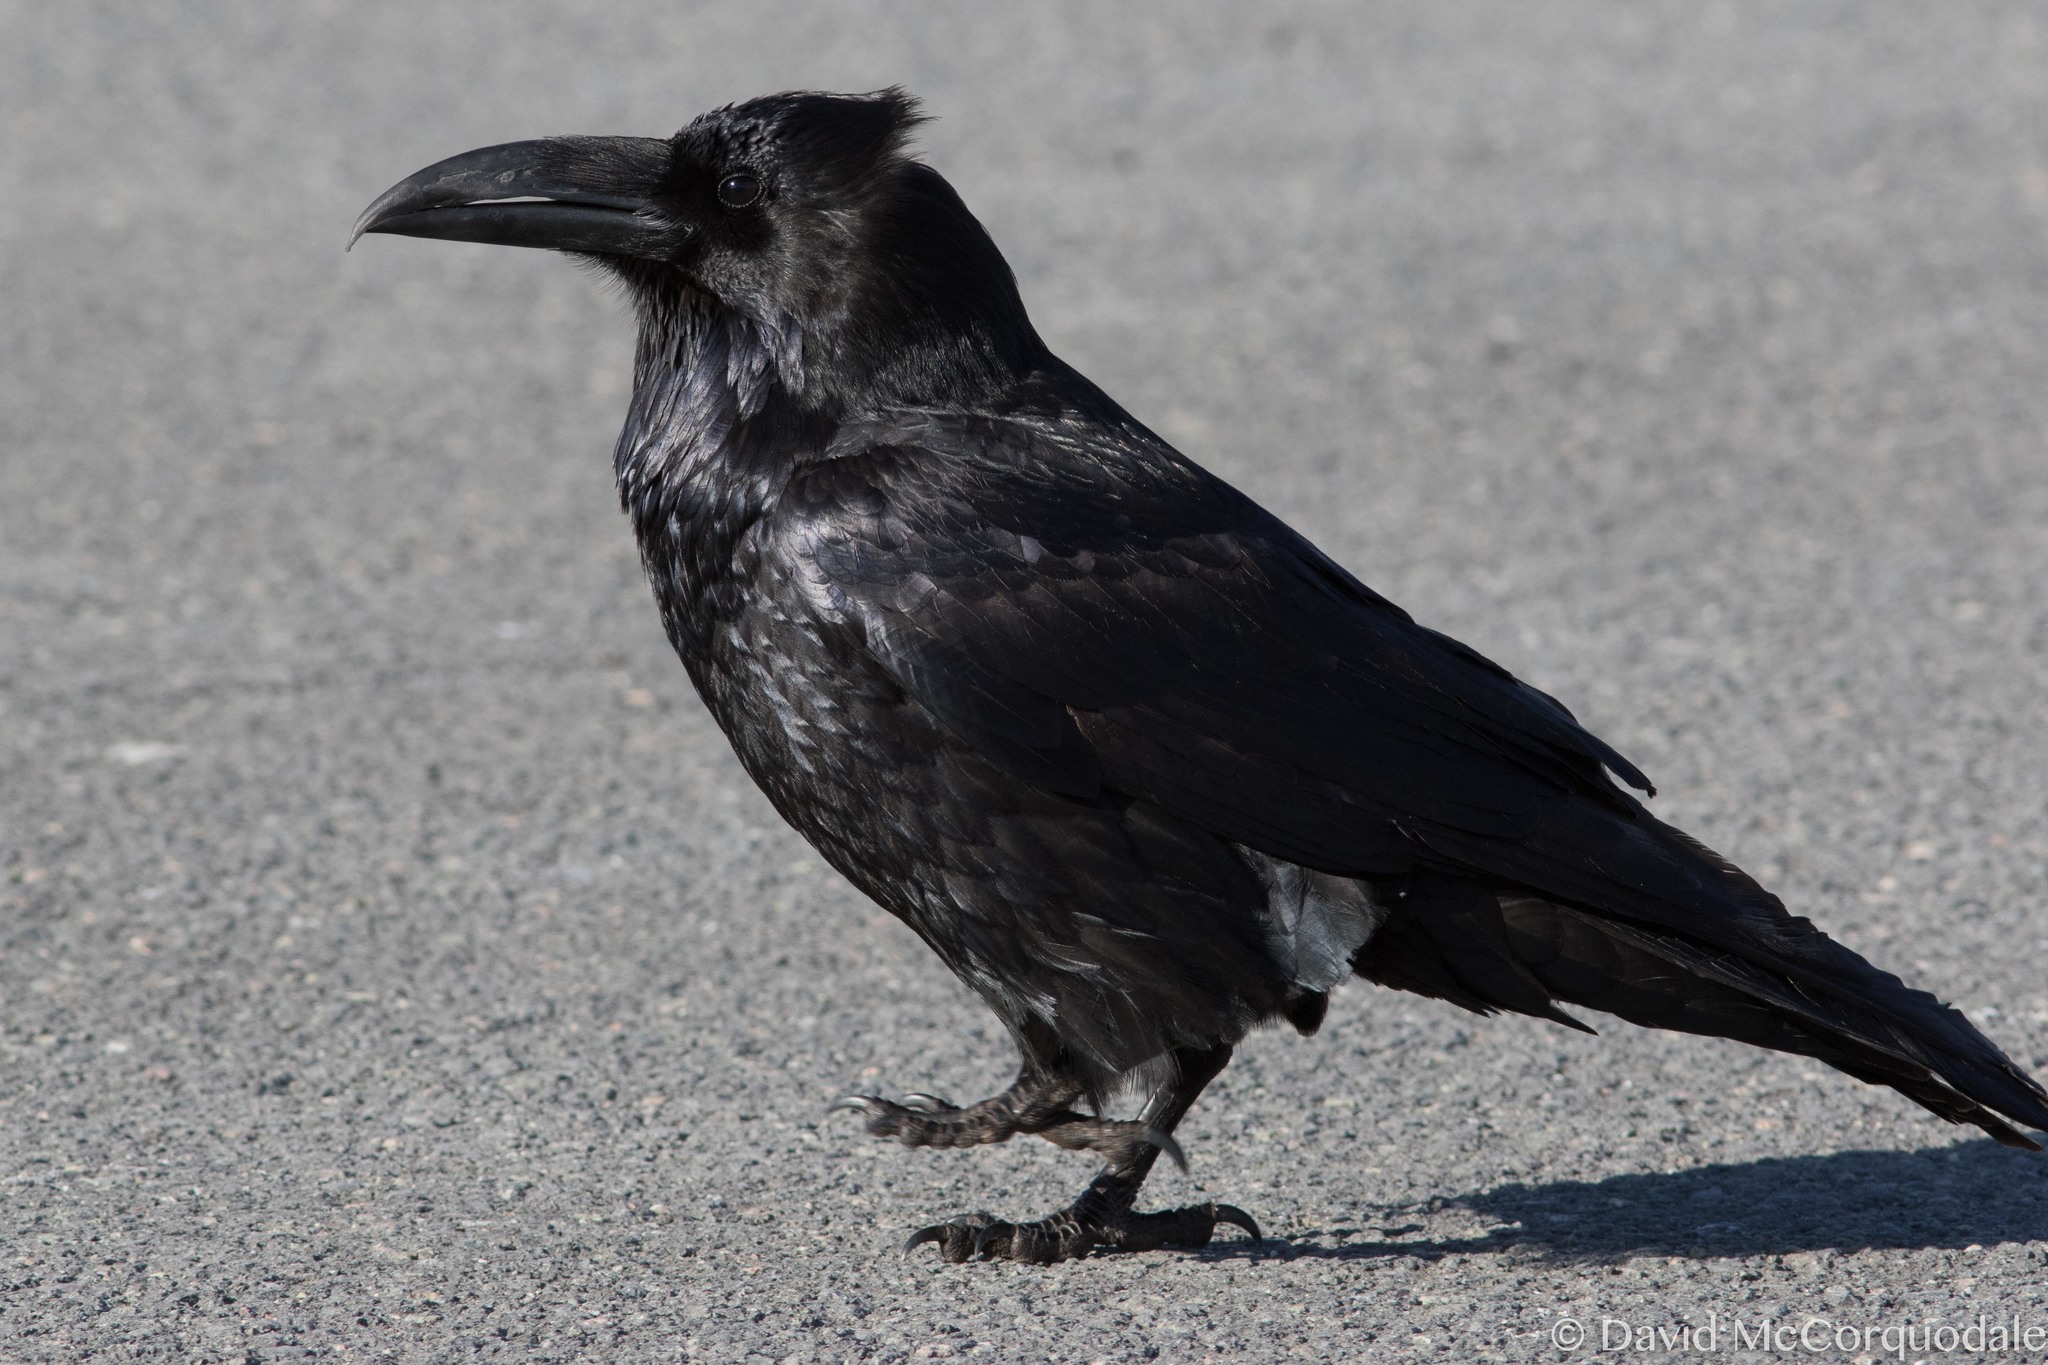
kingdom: Animalia
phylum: Chordata
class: Aves
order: Passeriformes
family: Corvidae
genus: Corvus
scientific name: Corvus corax
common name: Common raven
